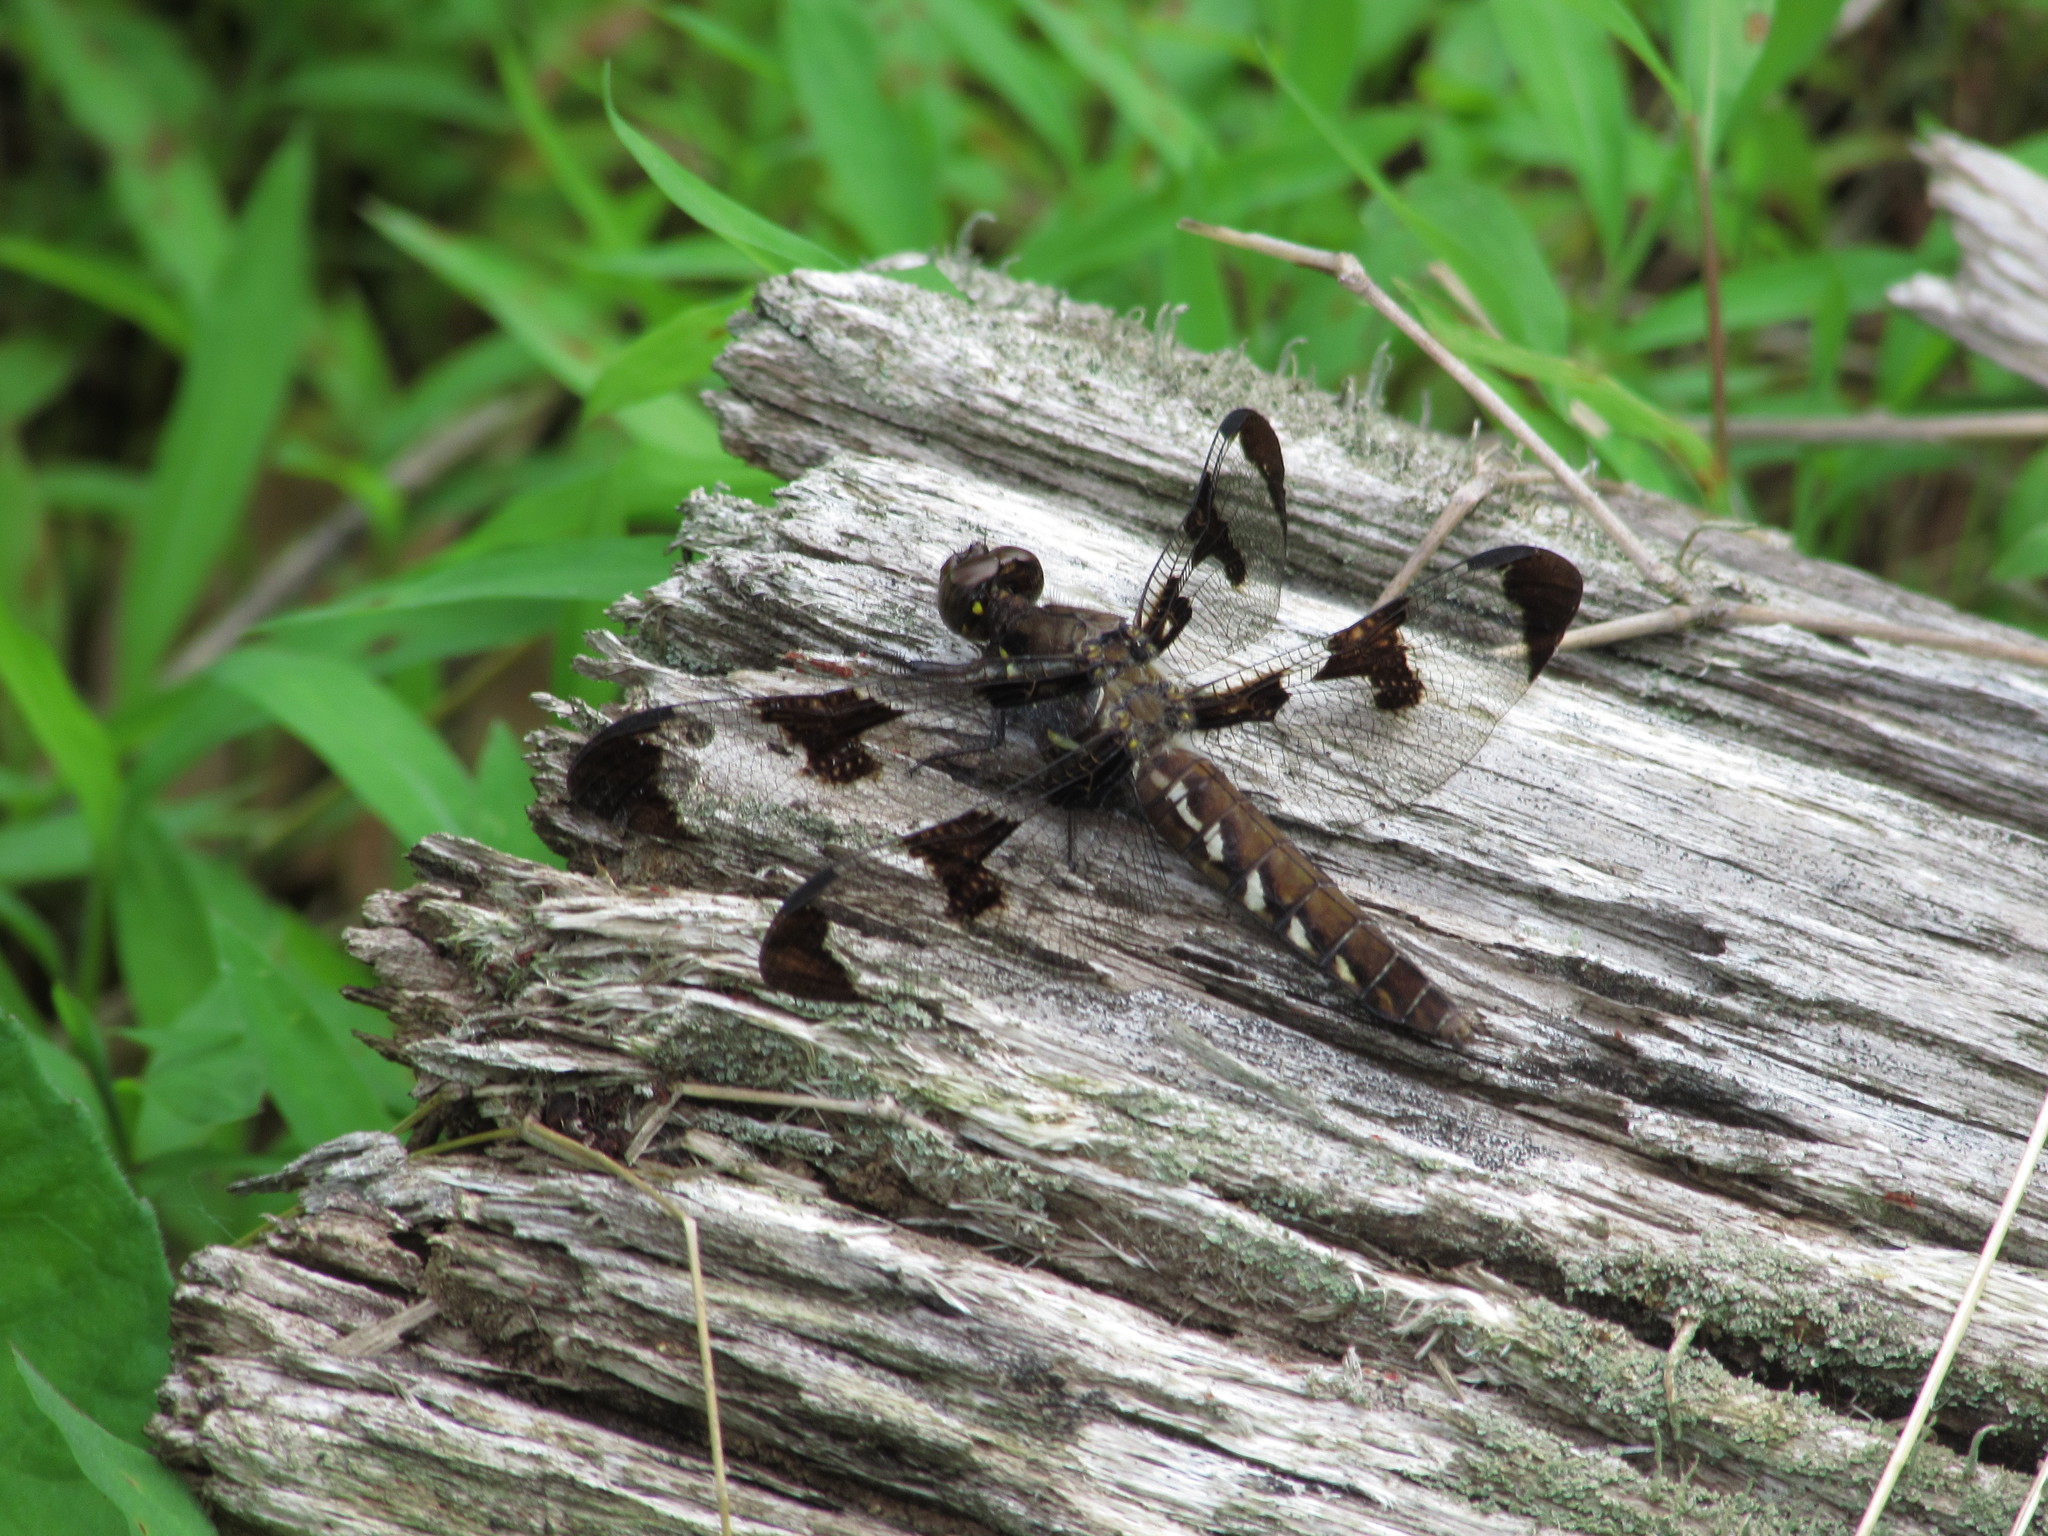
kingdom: Animalia
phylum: Arthropoda
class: Insecta
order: Odonata
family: Libellulidae
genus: Plathemis
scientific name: Plathemis lydia
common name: Common whitetail
